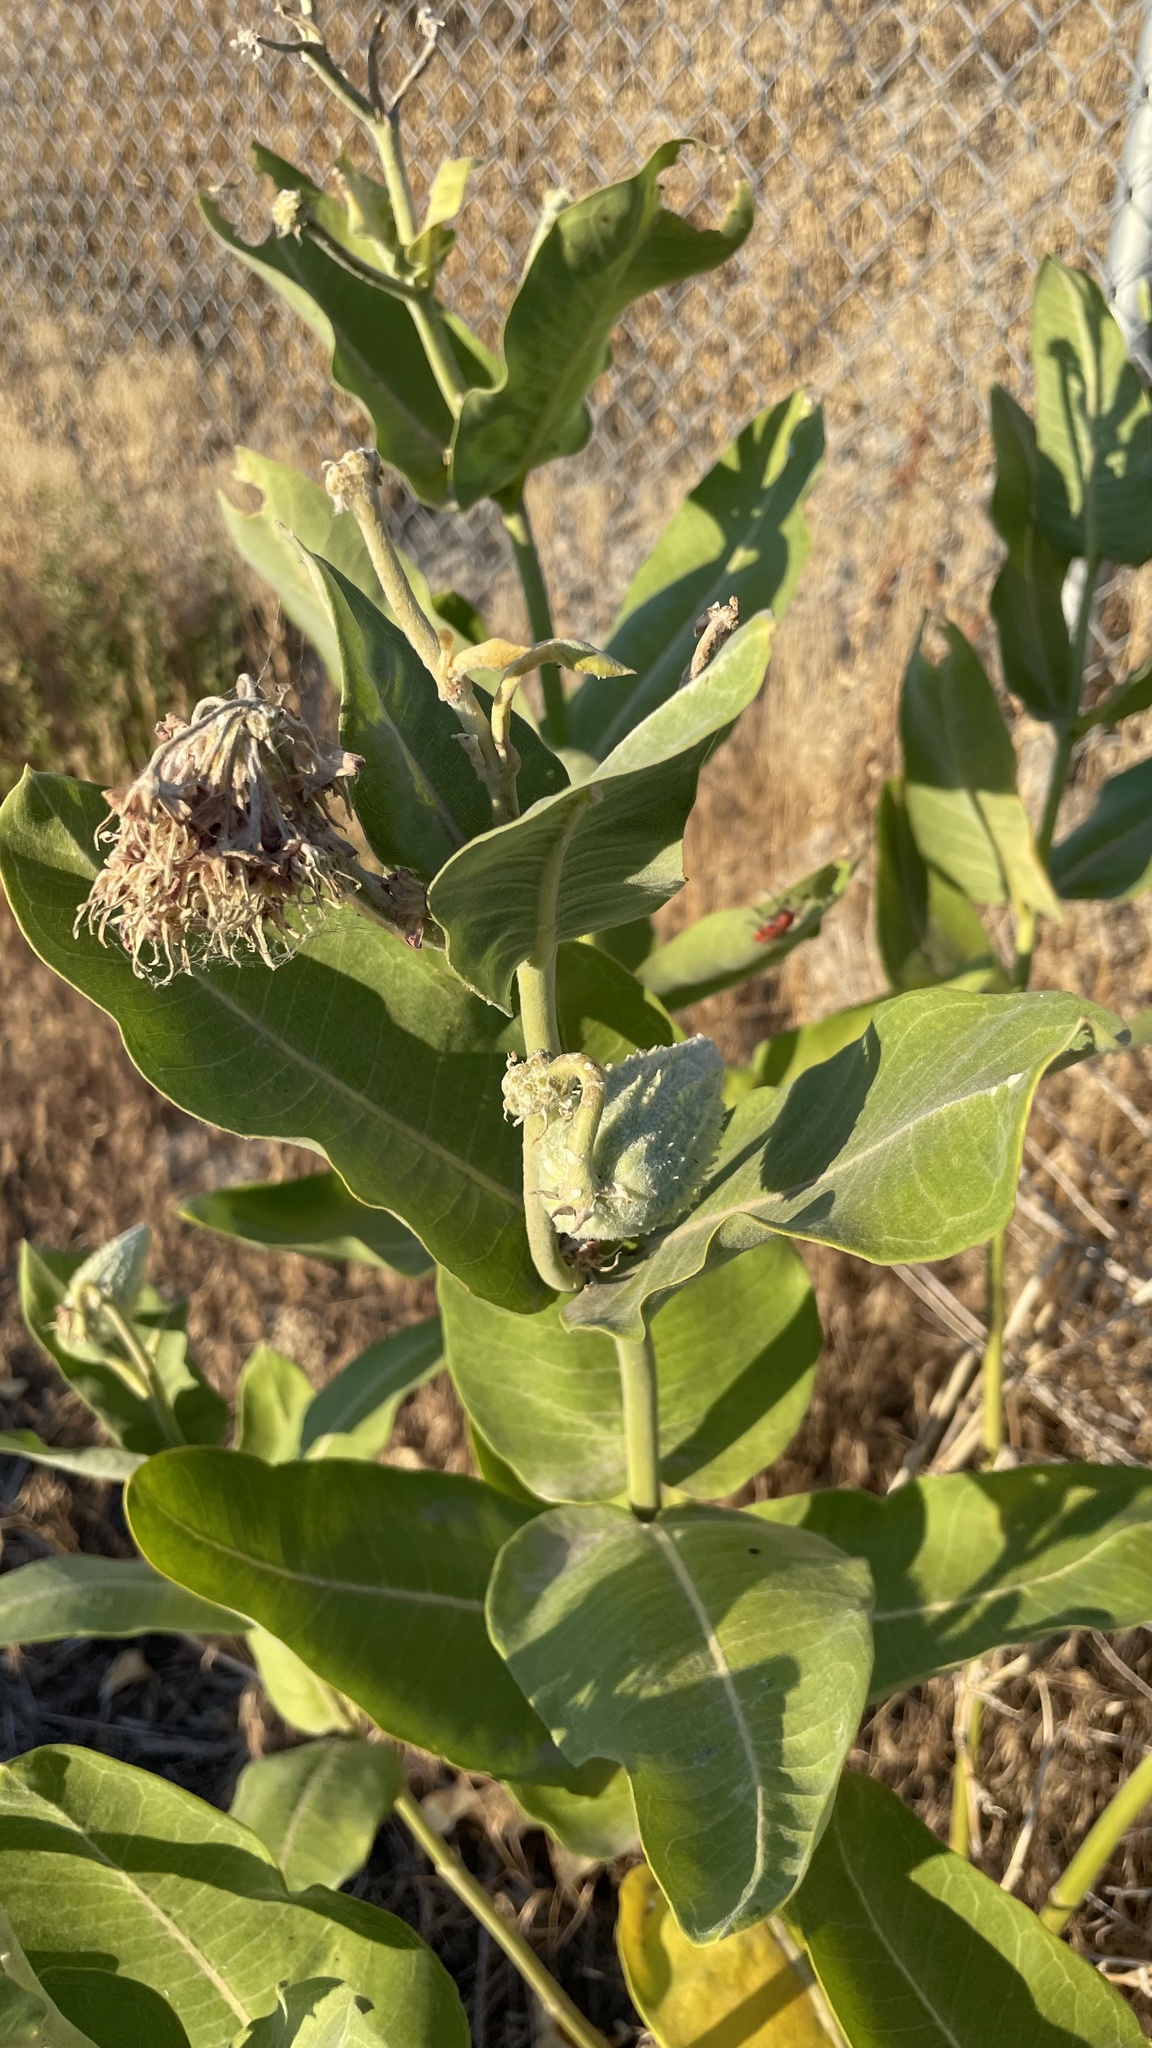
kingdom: Plantae
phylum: Tracheophyta
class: Magnoliopsida
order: Gentianales
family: Apocynaceae
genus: Asclepias
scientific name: Asclepias speciosa
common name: Showy milkweed
